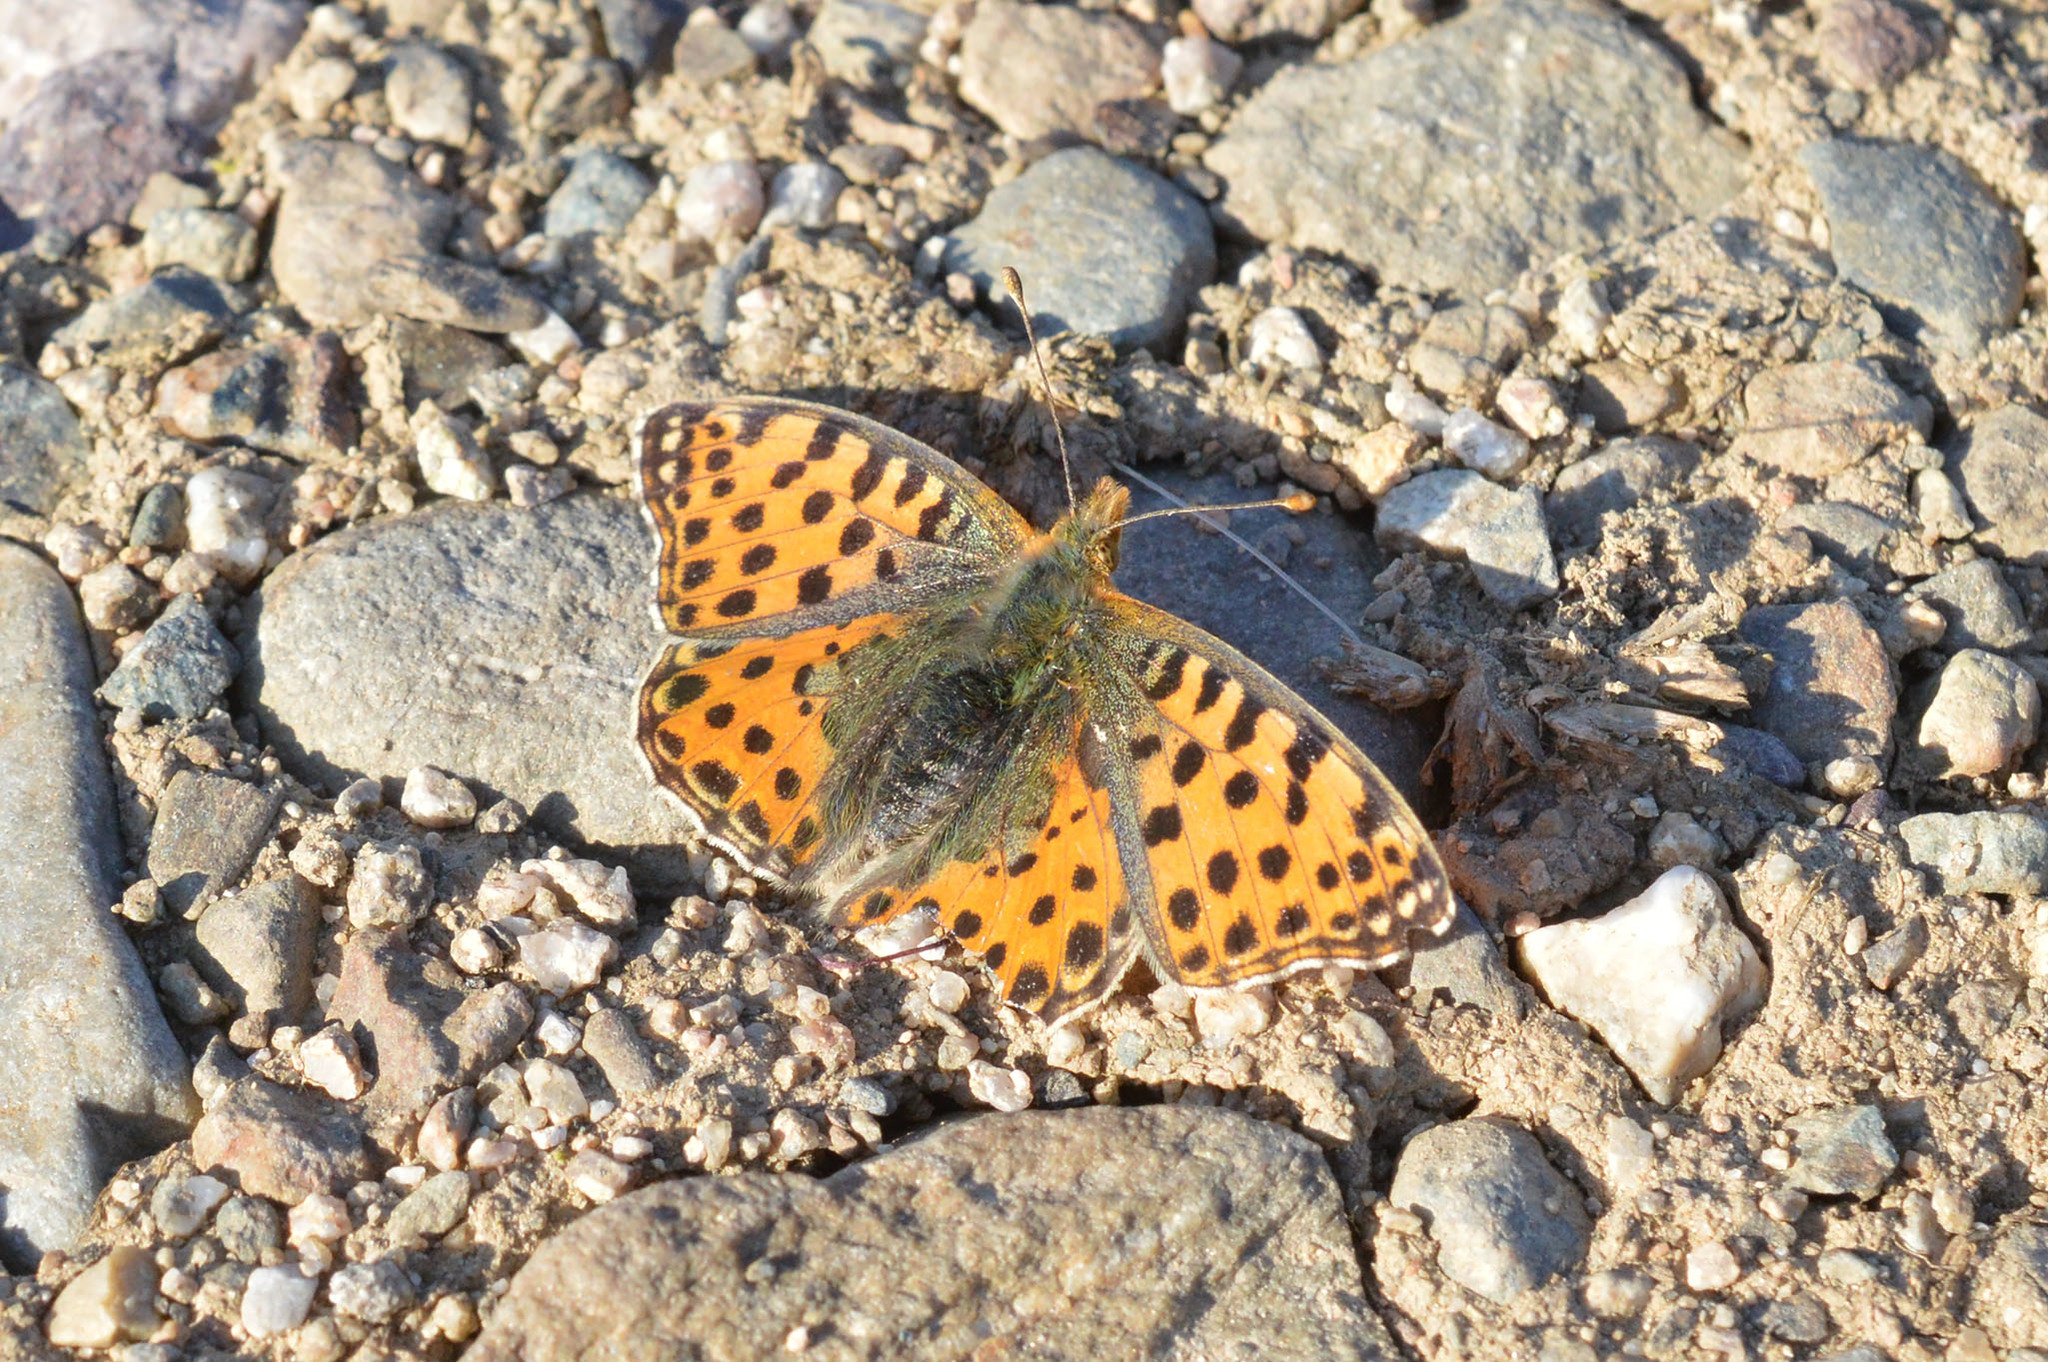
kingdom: Animalia
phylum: Arthropoda
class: Insecta
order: Lepidoptera
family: Nymphalidae
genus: Issoria
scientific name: Issoria lathonia
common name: Queen of spain fritillary
